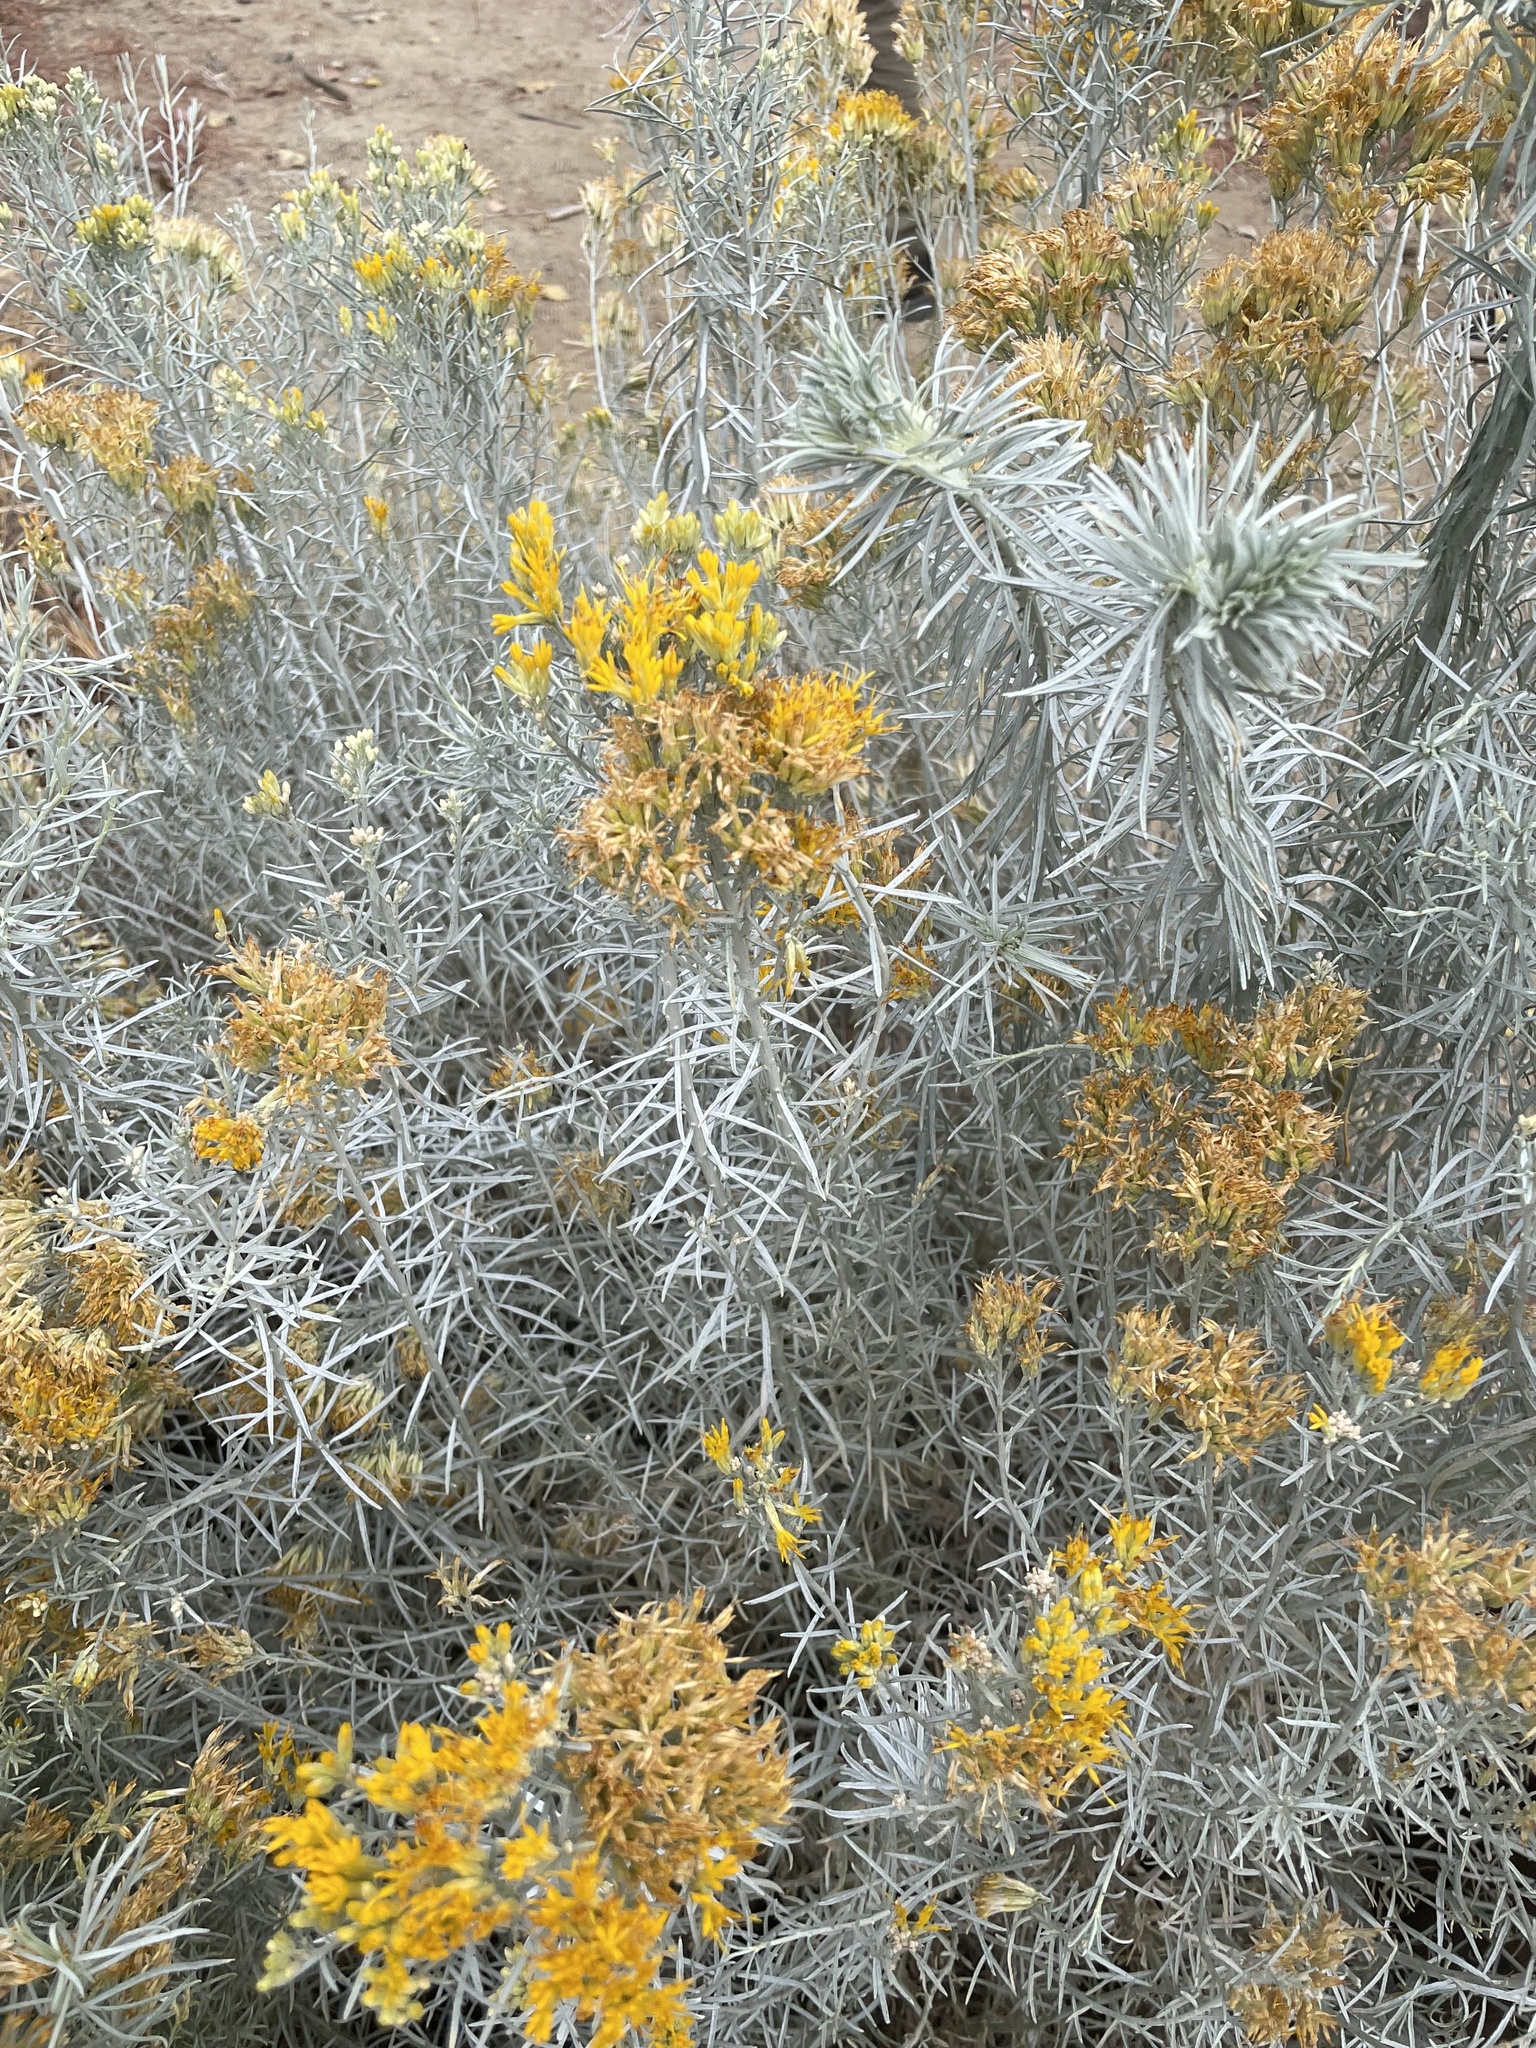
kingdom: Plantae
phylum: Tracheophyta
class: Magnoliopsida
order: Asterales
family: Asteraceae
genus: Ericameria
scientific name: Ericameria nauseosa
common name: Rubber rabbitbrush
